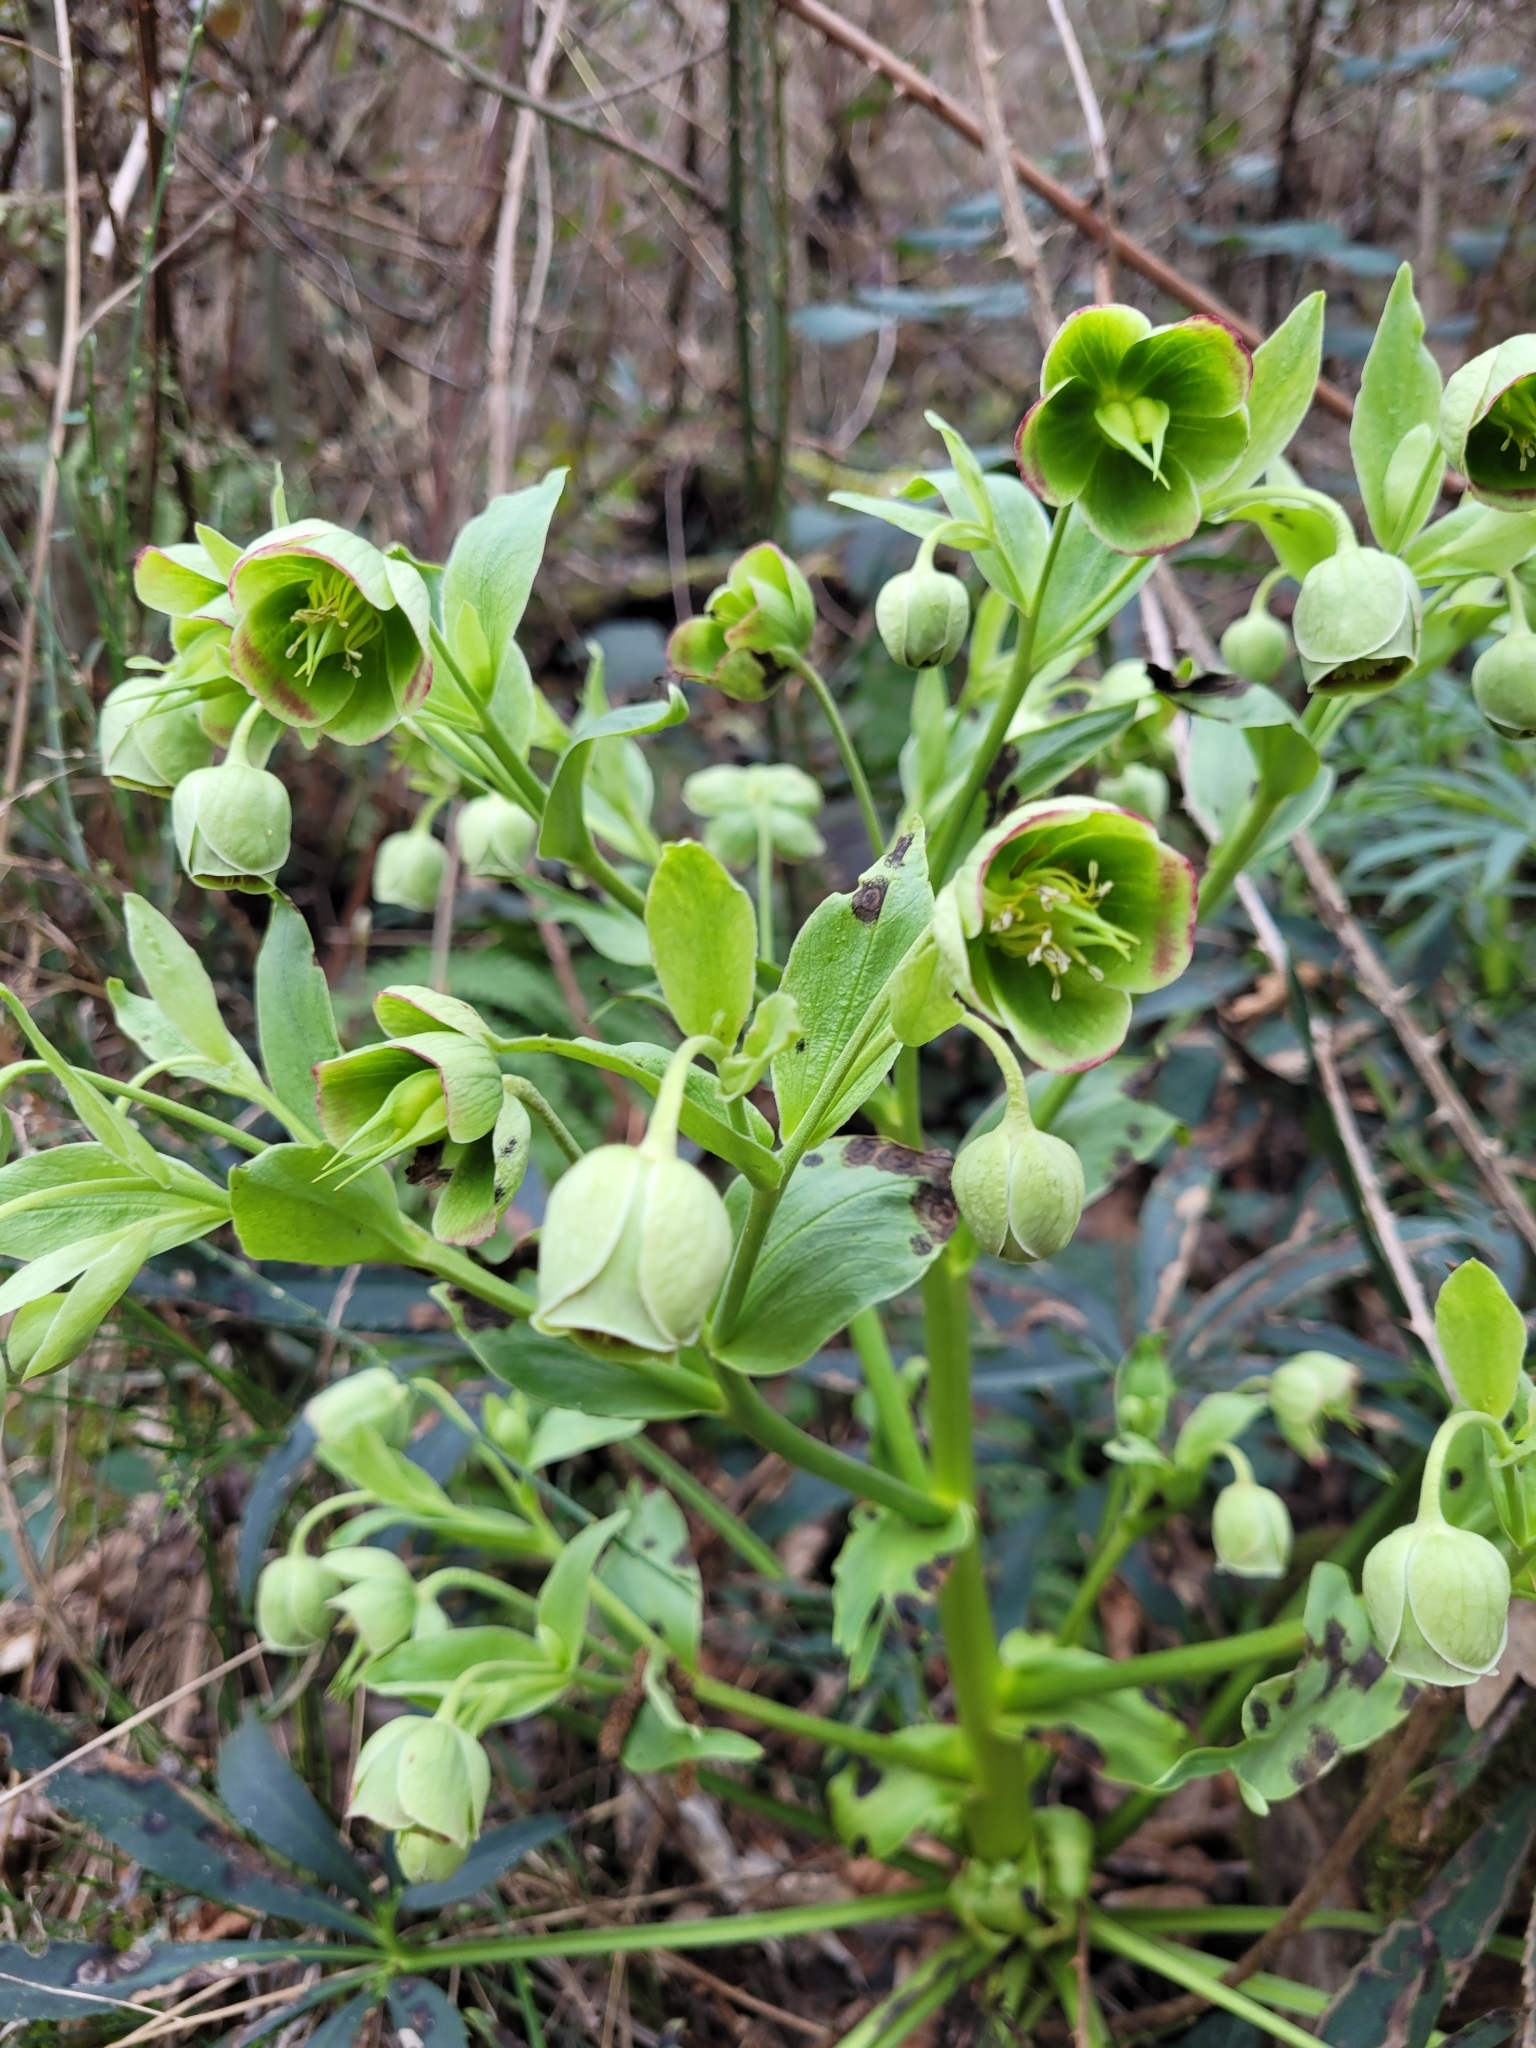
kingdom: Plantae
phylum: Tracheophyta
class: Magnoliopsida
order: Ranunculales
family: Ranunculaceae
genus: Helleborus
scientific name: Helleborus foetidus
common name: Stinking hellebore
